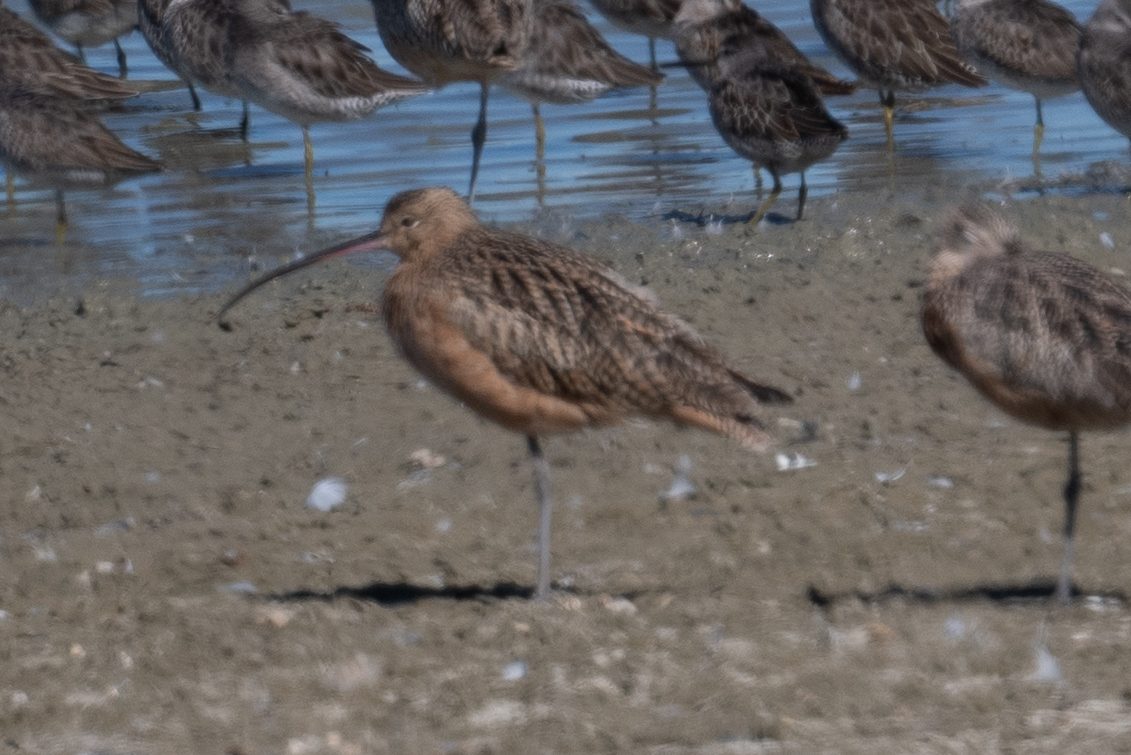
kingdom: Animalia
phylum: Chordata
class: Aves
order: Charadriiformes
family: Scolopacidae
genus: Numenius
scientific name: Numenius americanus
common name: Long-billed curlew
